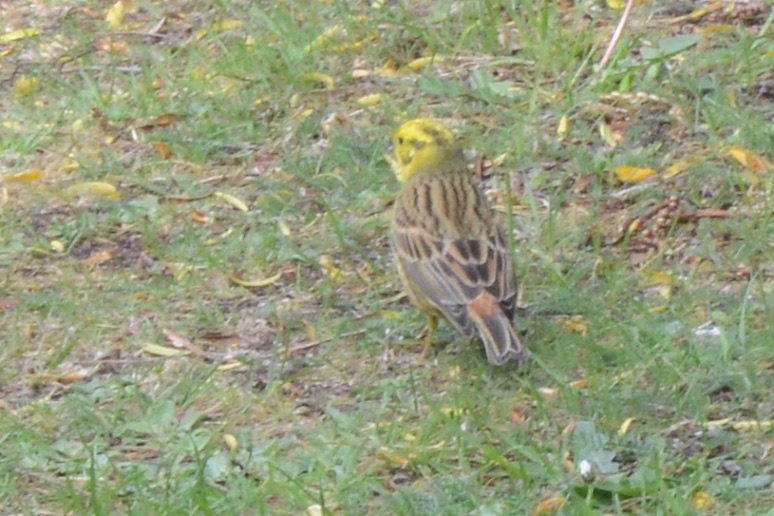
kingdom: Animalia
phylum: Chordata
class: Aves
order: Passeriformes
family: Emberizidae
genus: Emberiza
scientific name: Emberiza citrinella
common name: Yellowhammer
